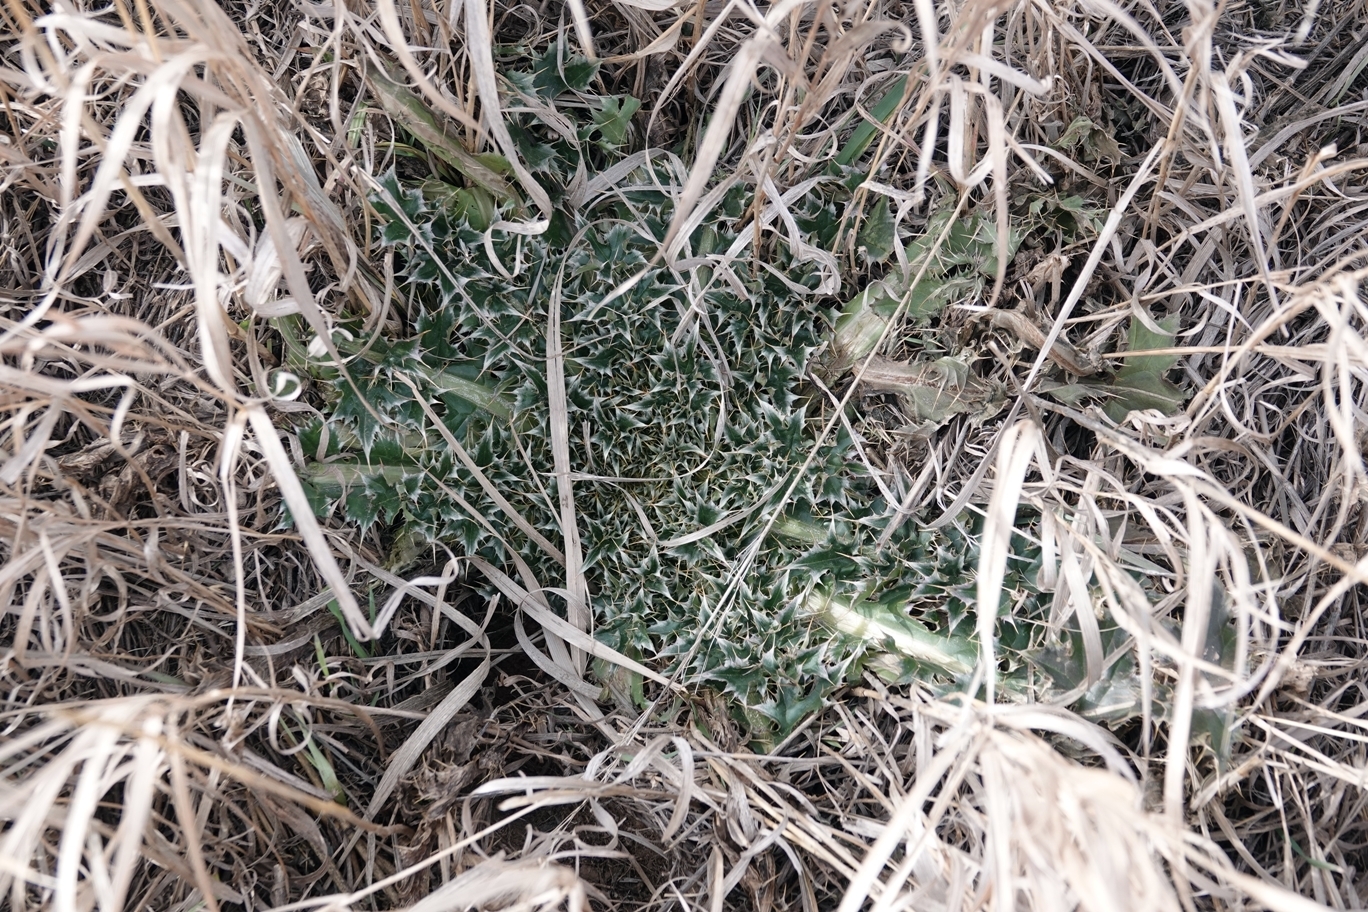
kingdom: Plantae
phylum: Tracheophyta
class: Magnoliopsida
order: Asterales
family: Asteraceae
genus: Carduus
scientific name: Carduus nutans
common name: Musk thistle
